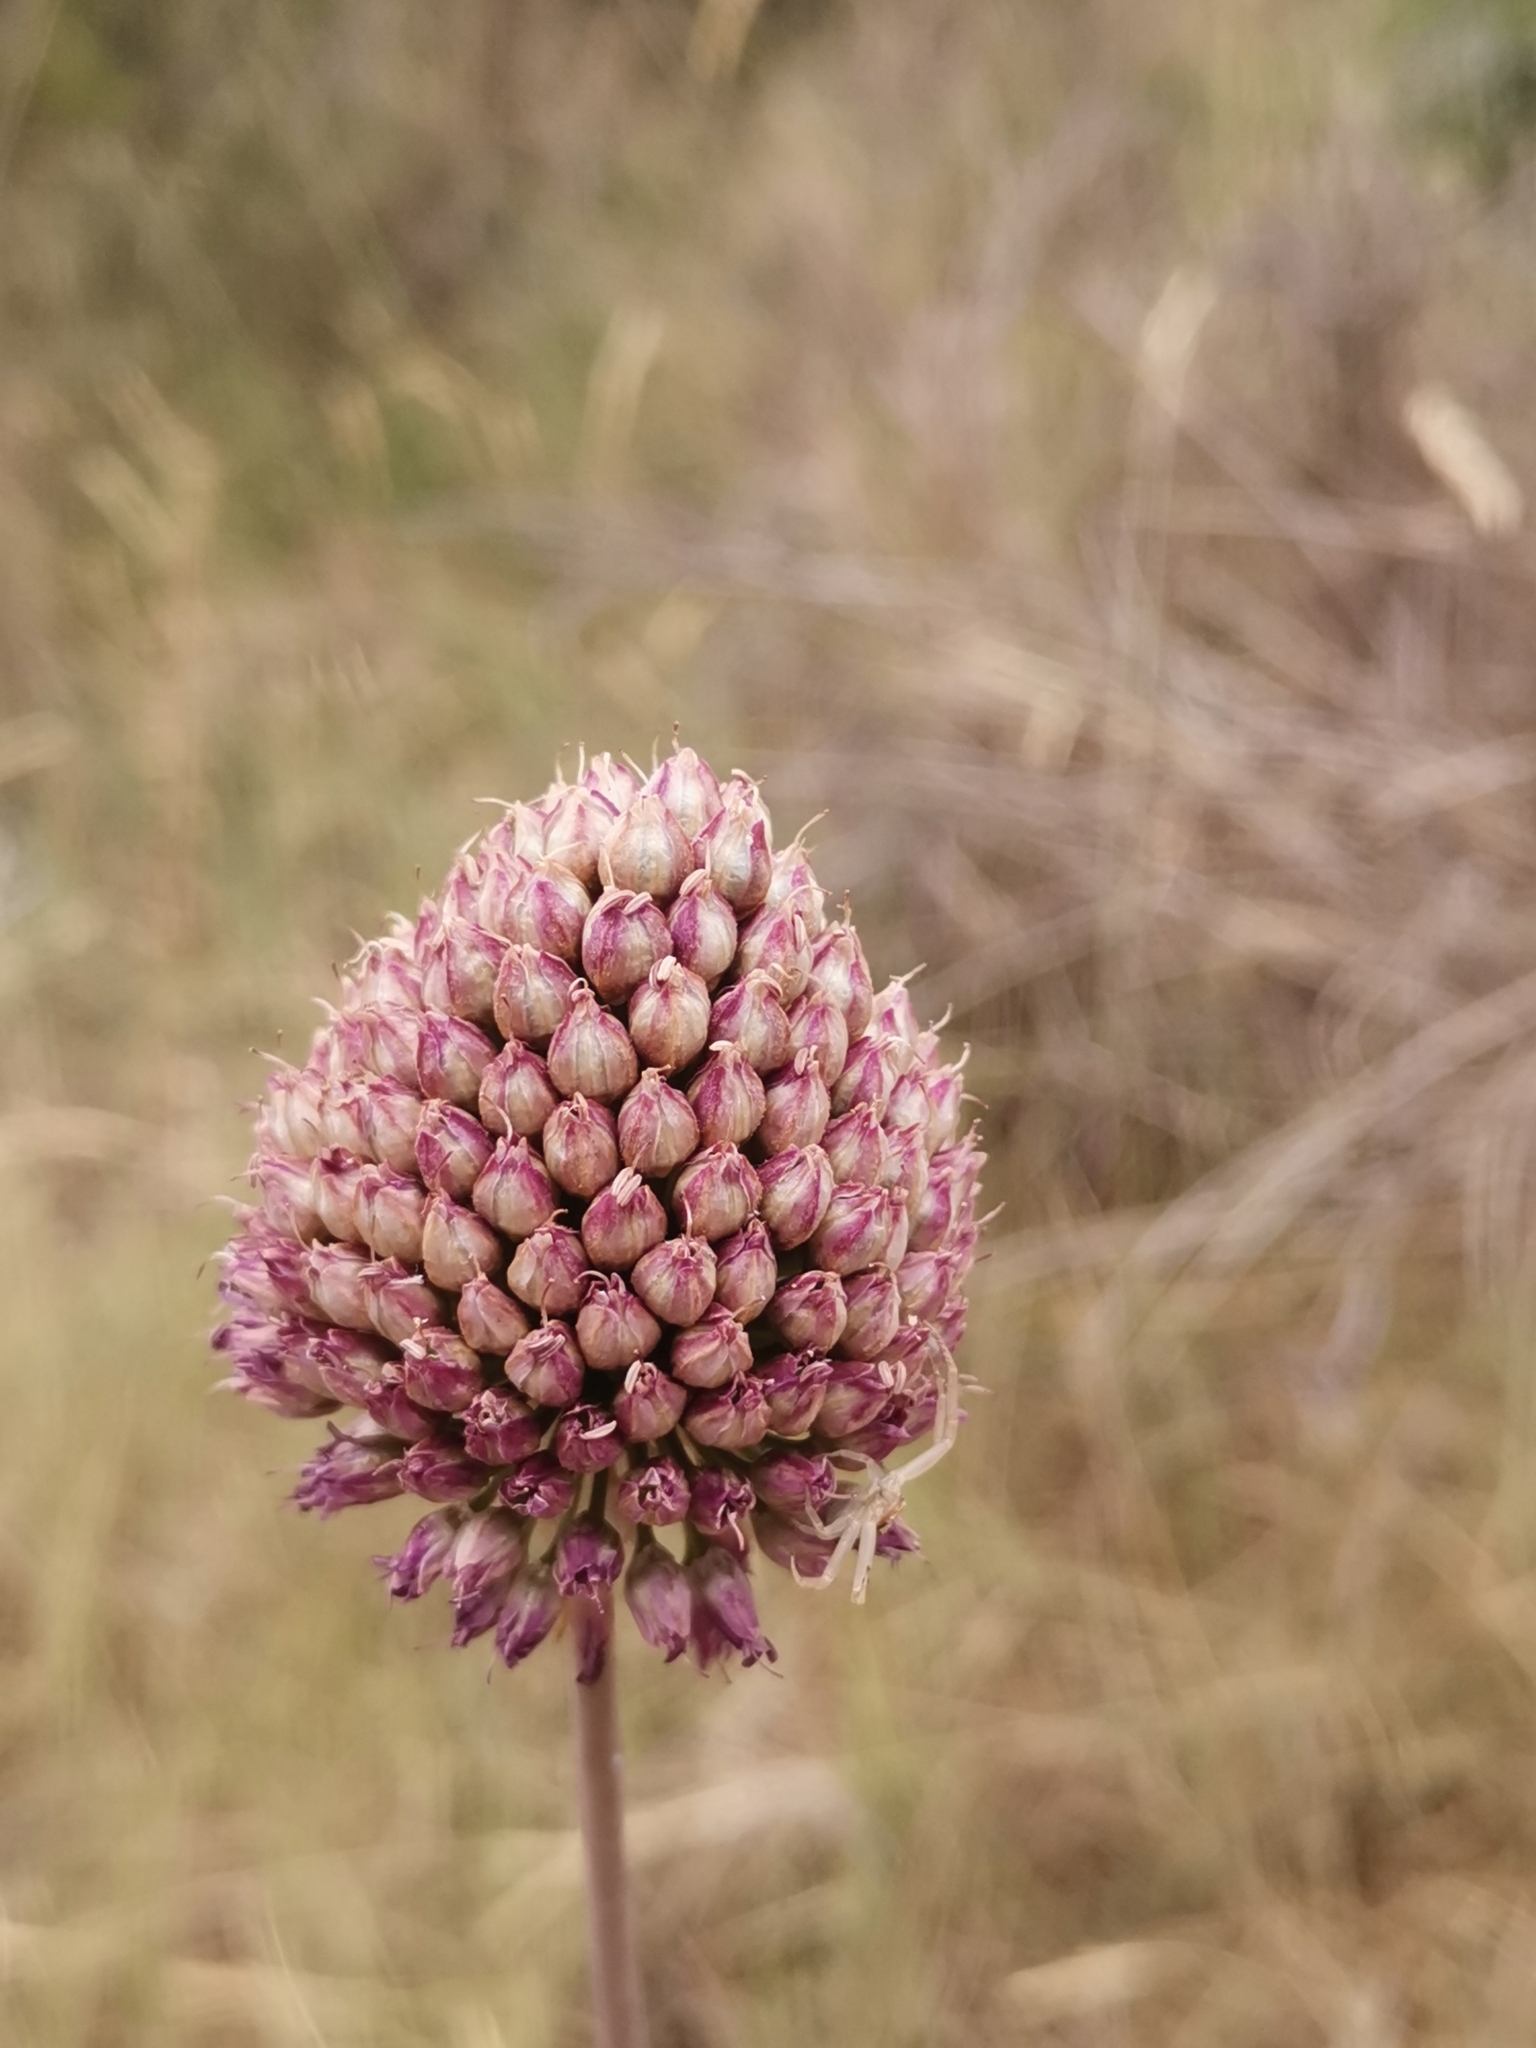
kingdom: Plantae
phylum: Tracheophyta
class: Liliopsida
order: Asparagales
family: Amaryllidaceae
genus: Allium
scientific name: Allium sphaerocephalon
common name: Round-headed leek
